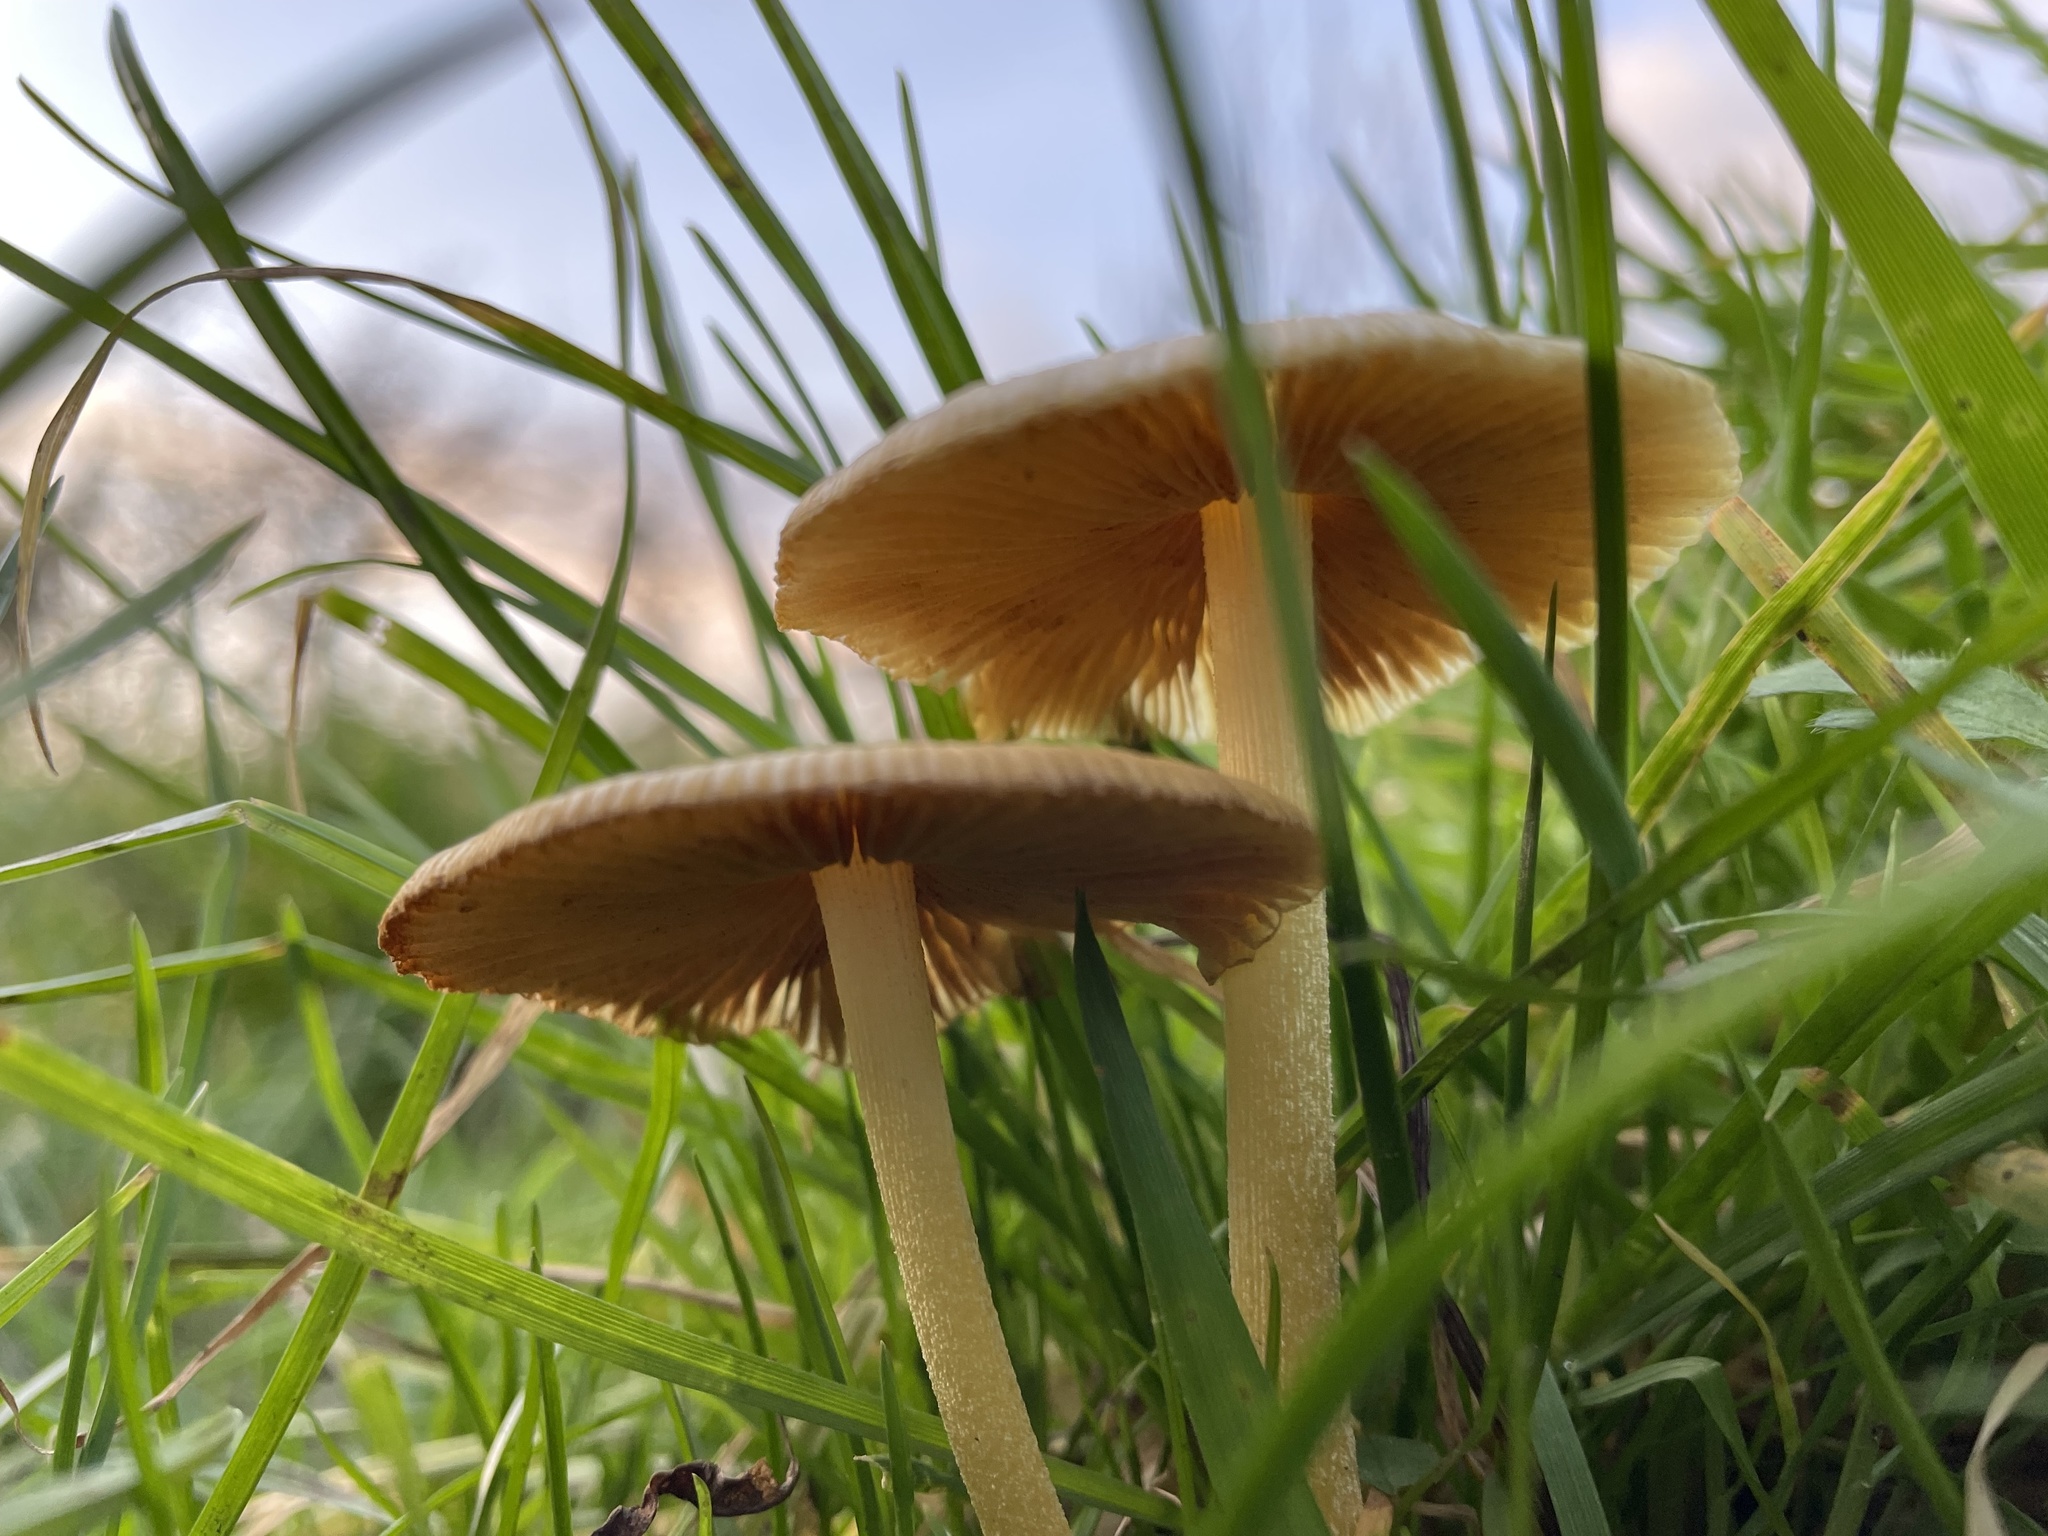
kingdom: Fungi
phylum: Basidiomycota
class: Agaricomycetes
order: Agaricales
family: Bolbitiaceae
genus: Bolbitius
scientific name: Bolbitius titubans
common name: Yellow fieldcap
